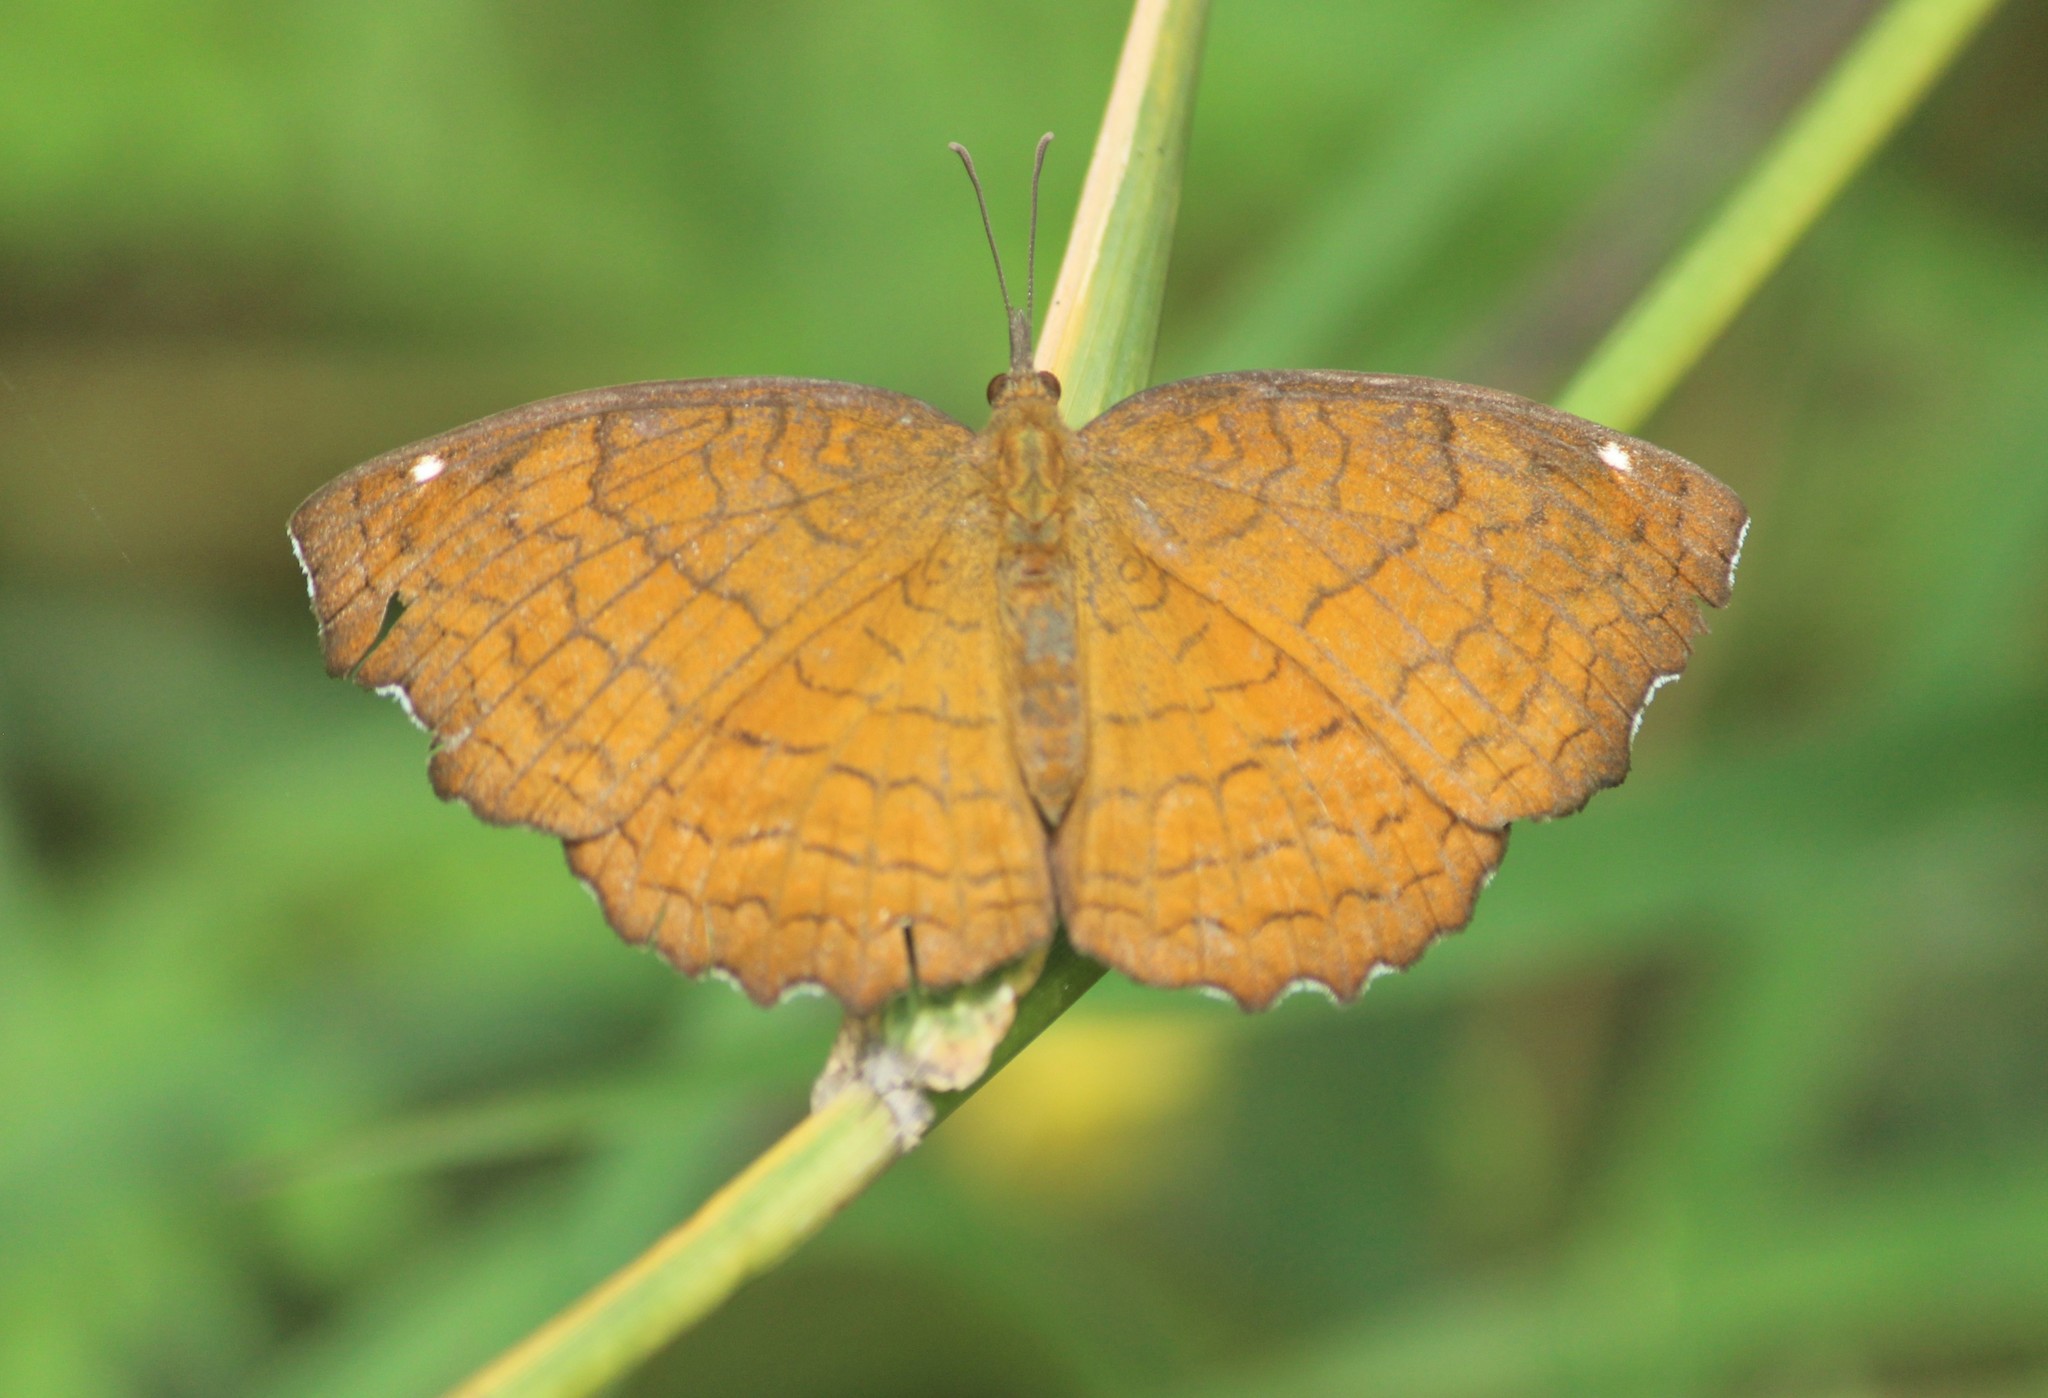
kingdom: Animalia
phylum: Arthropoda
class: Insecta
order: Lepidoptera
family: Nymphalidae
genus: Ariadne
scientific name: Ariadne ariadne
